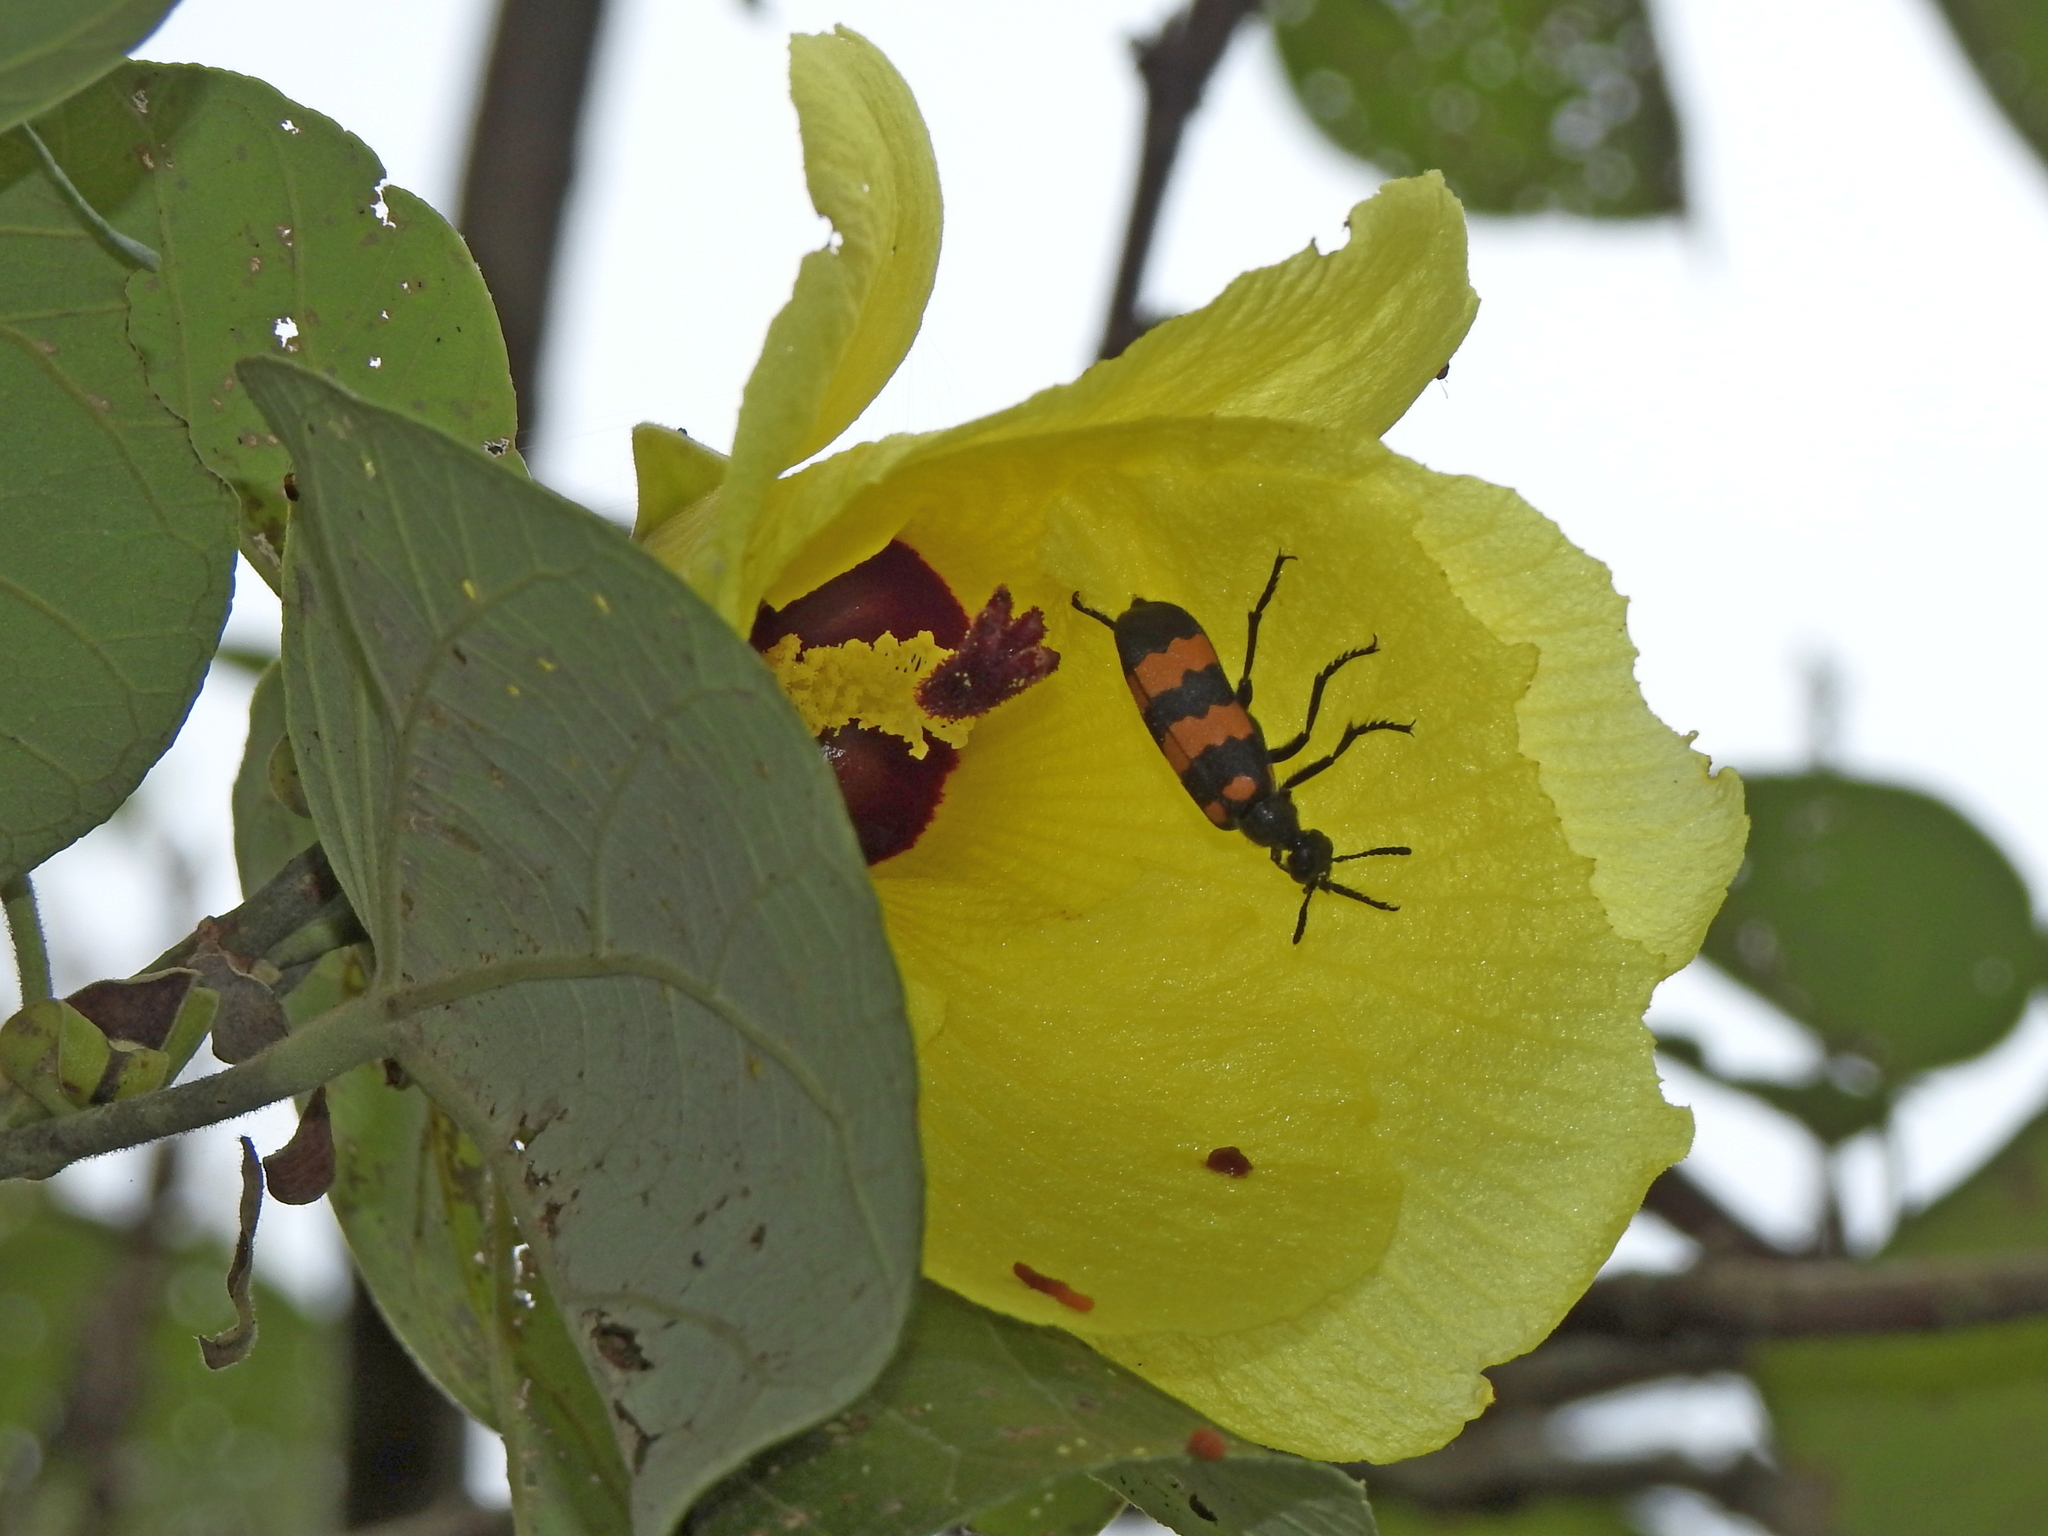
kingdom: Animalia
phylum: Arthropoda
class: Insecta
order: Coleoptera
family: Meloidae
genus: Hycleus
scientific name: Hycleus phaleratus
